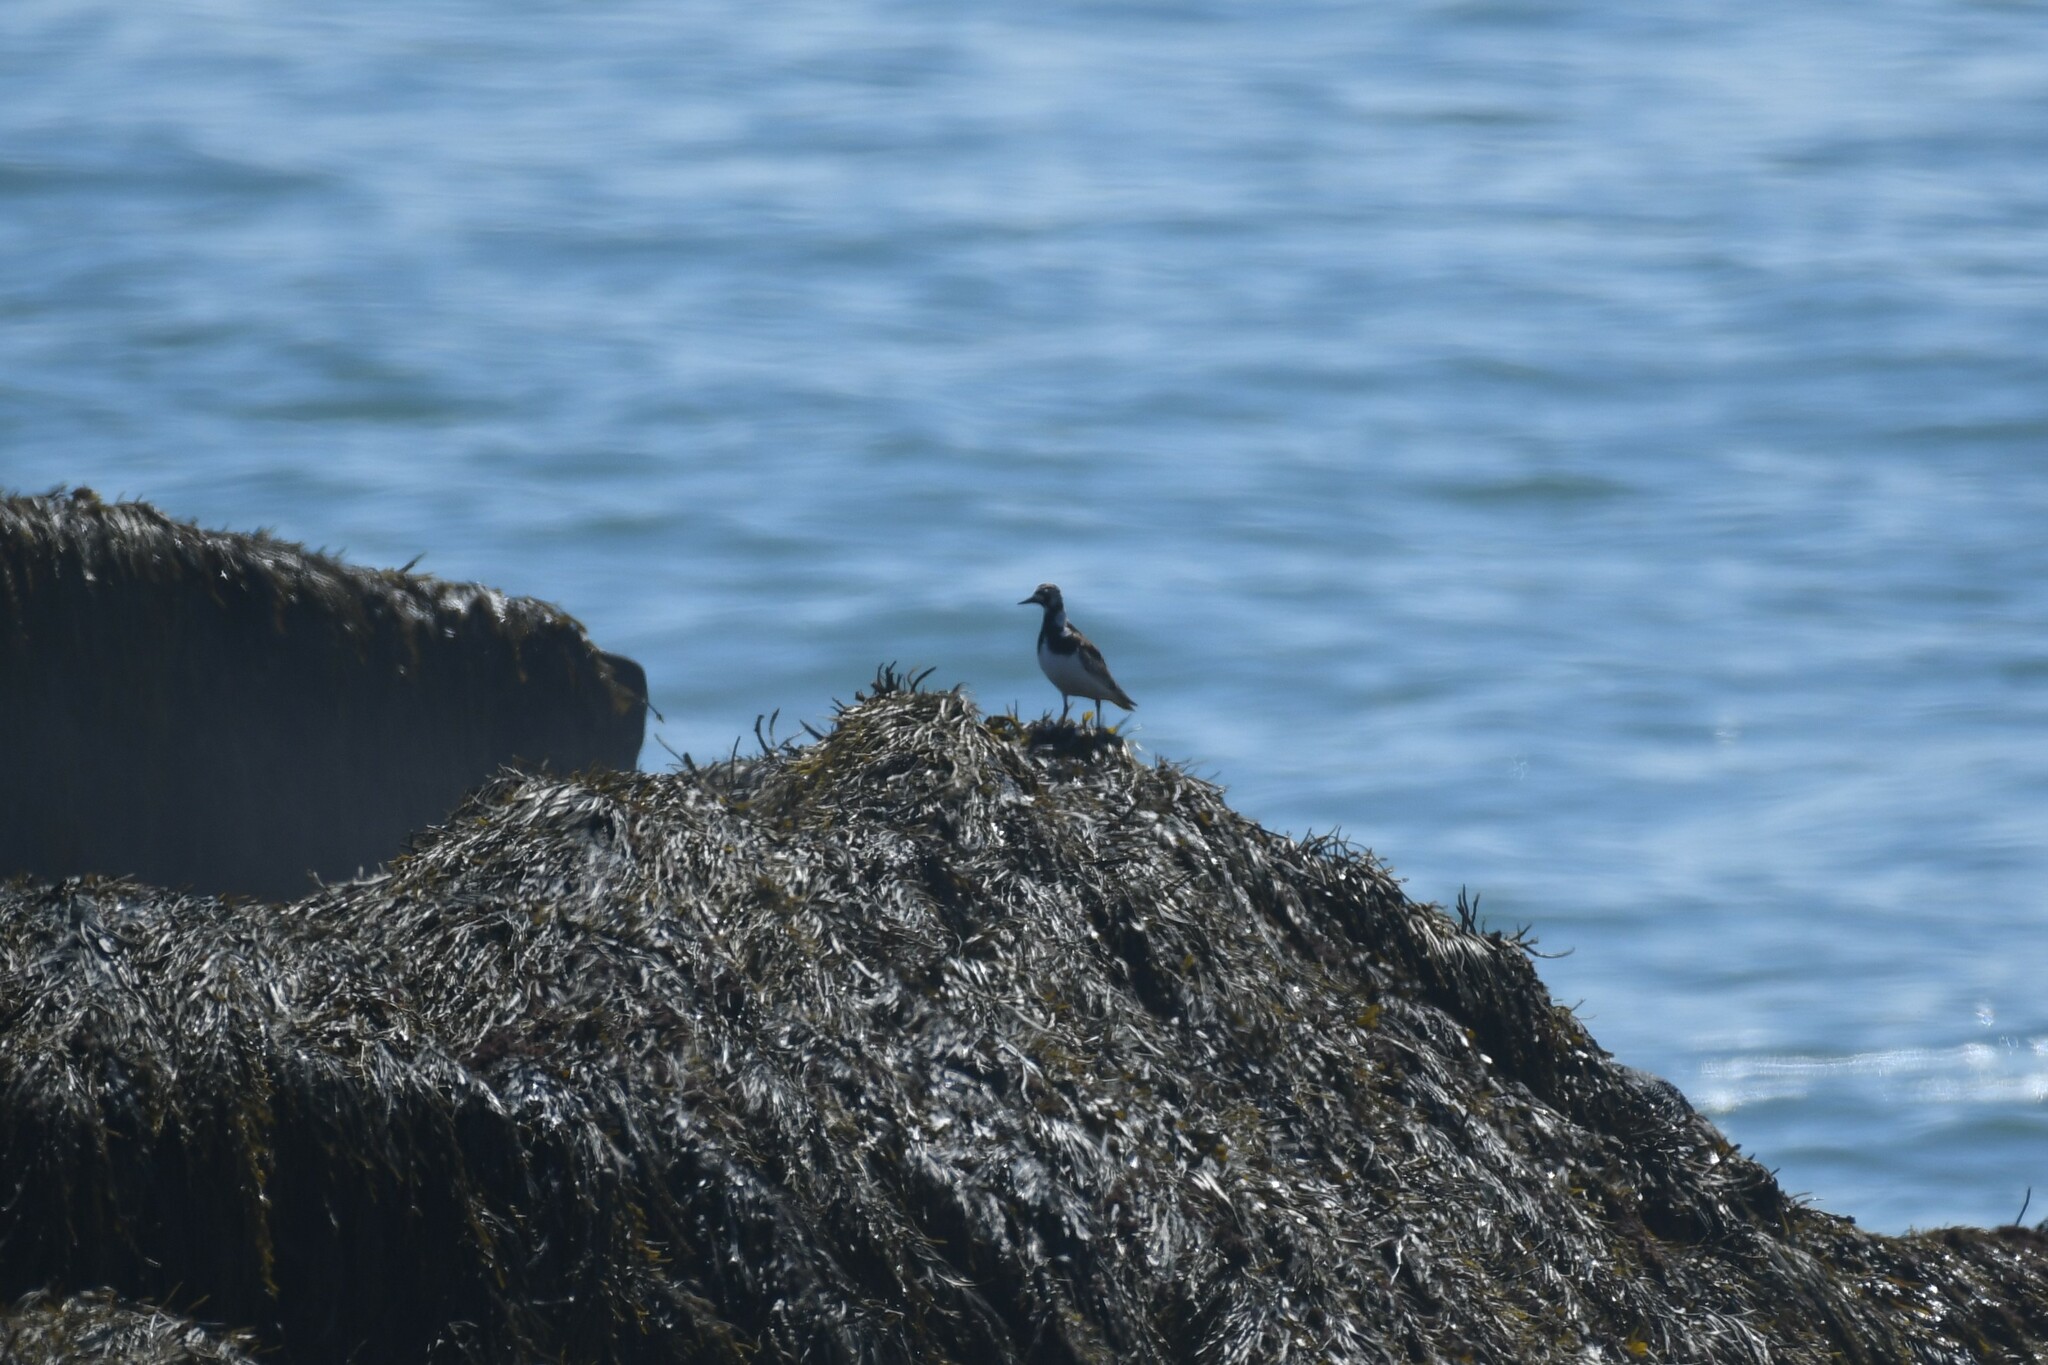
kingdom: Animalia
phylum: Chordata
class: Aves
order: Charadriiformes
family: Scolopacidae
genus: Arenaria
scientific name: Arenaria interpres
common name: Ruddy turnstone
